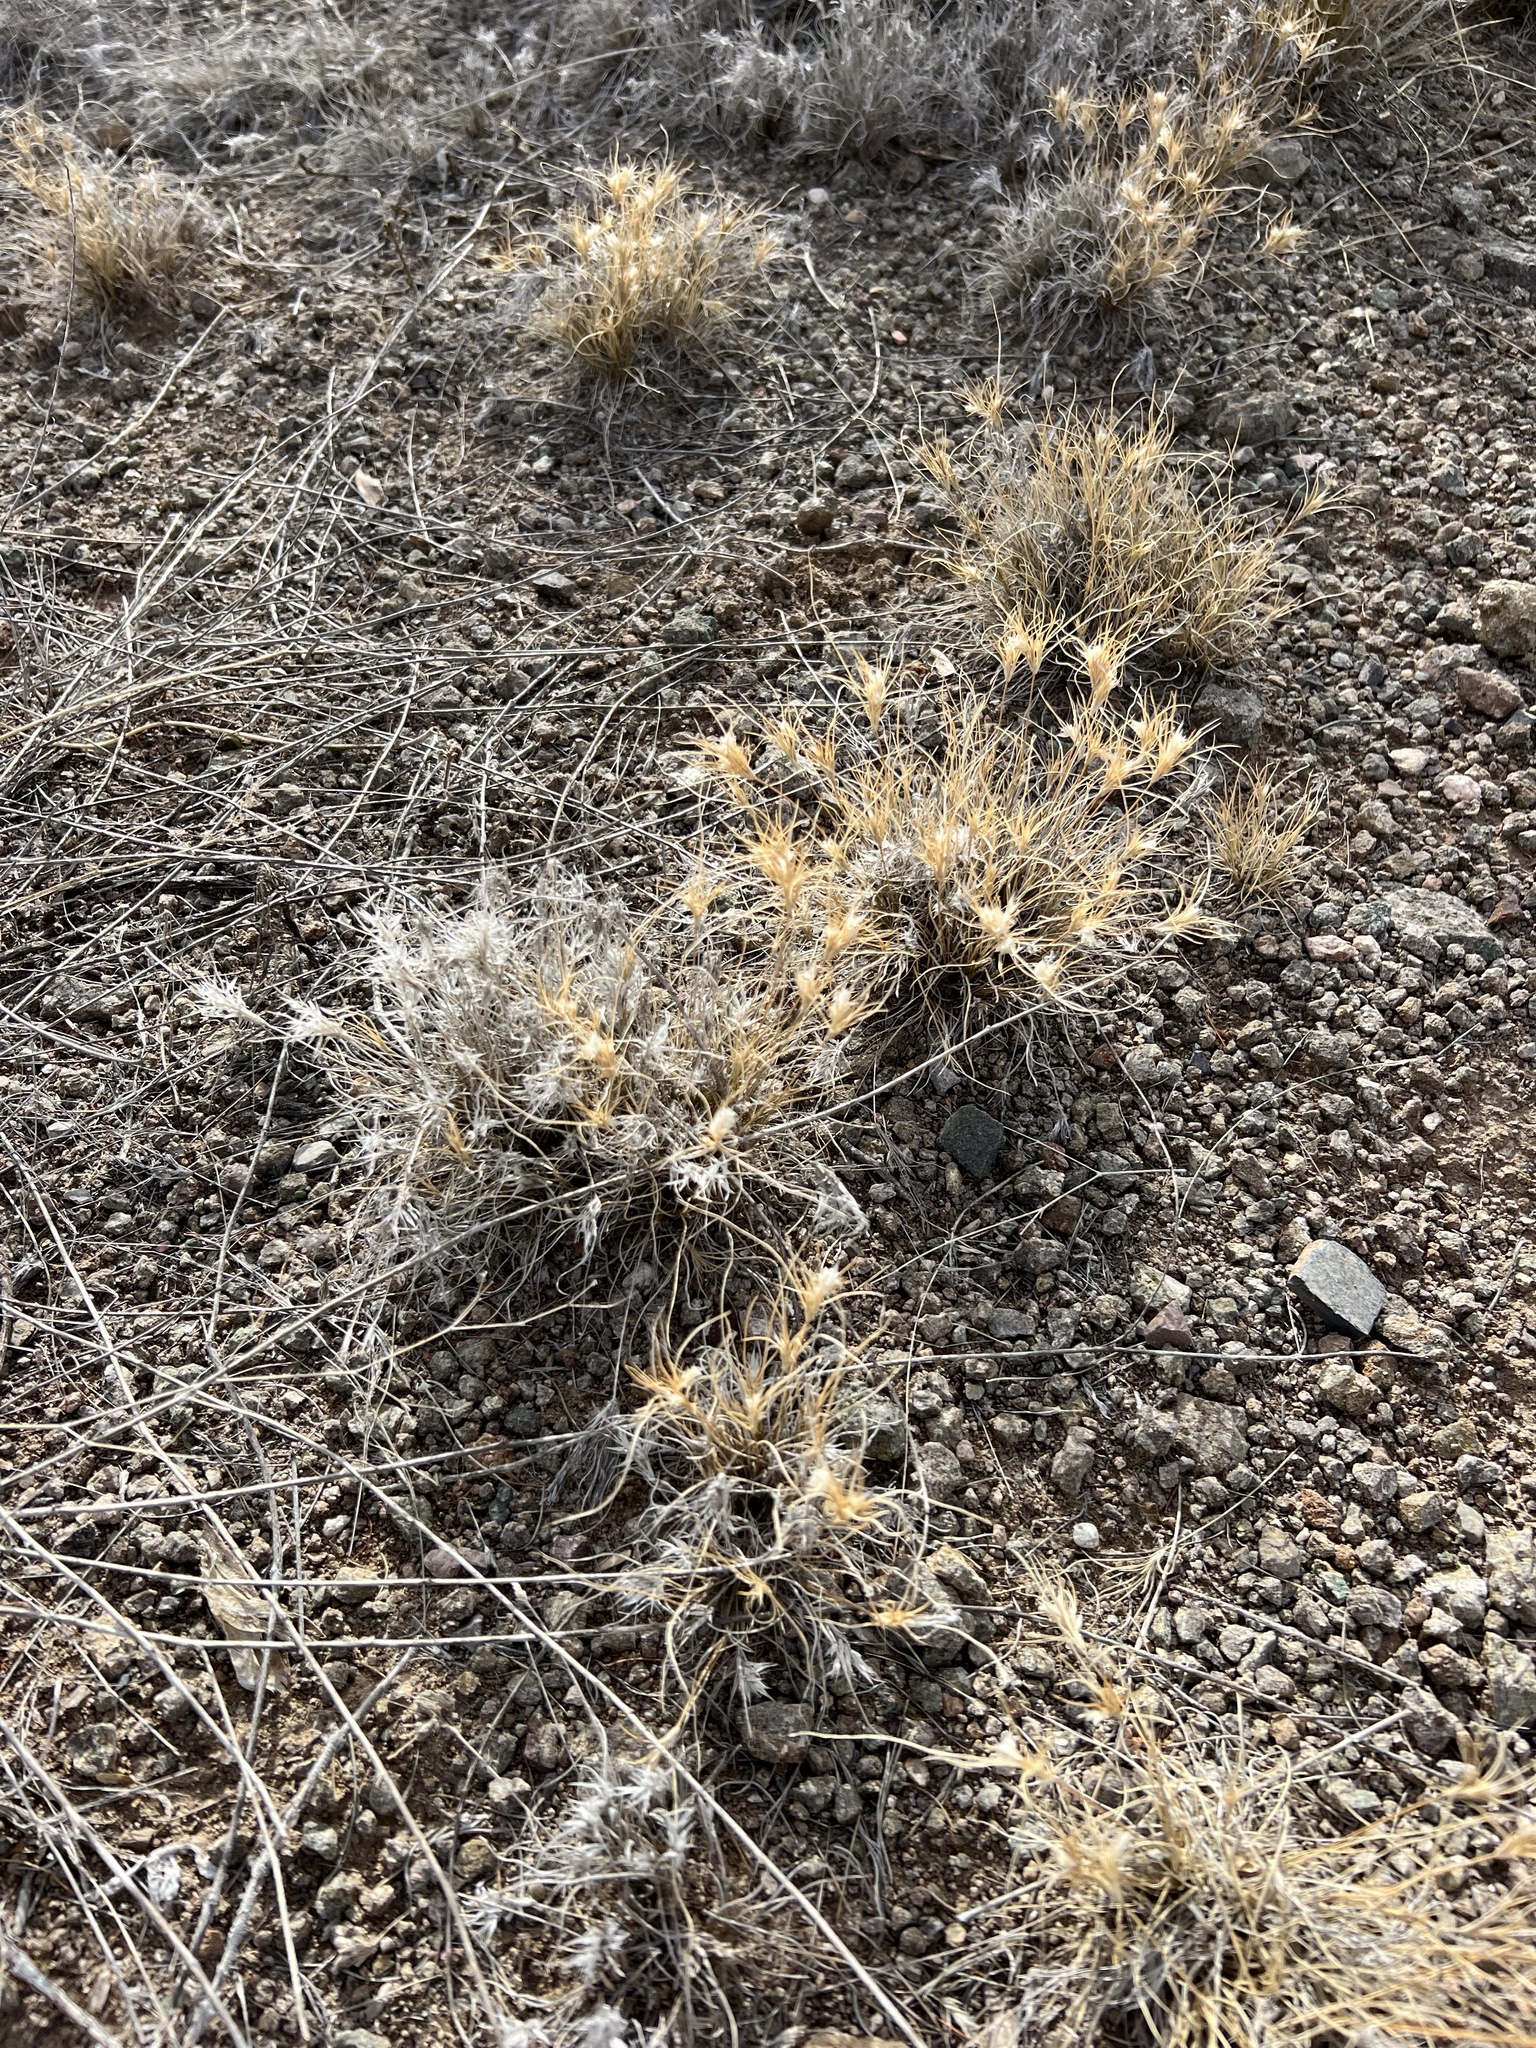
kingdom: Plantae
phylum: Tracheophyta
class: Liliopsida
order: Poales
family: Poaceae
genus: Dasyochloa
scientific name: Dasyochloa pulchella
